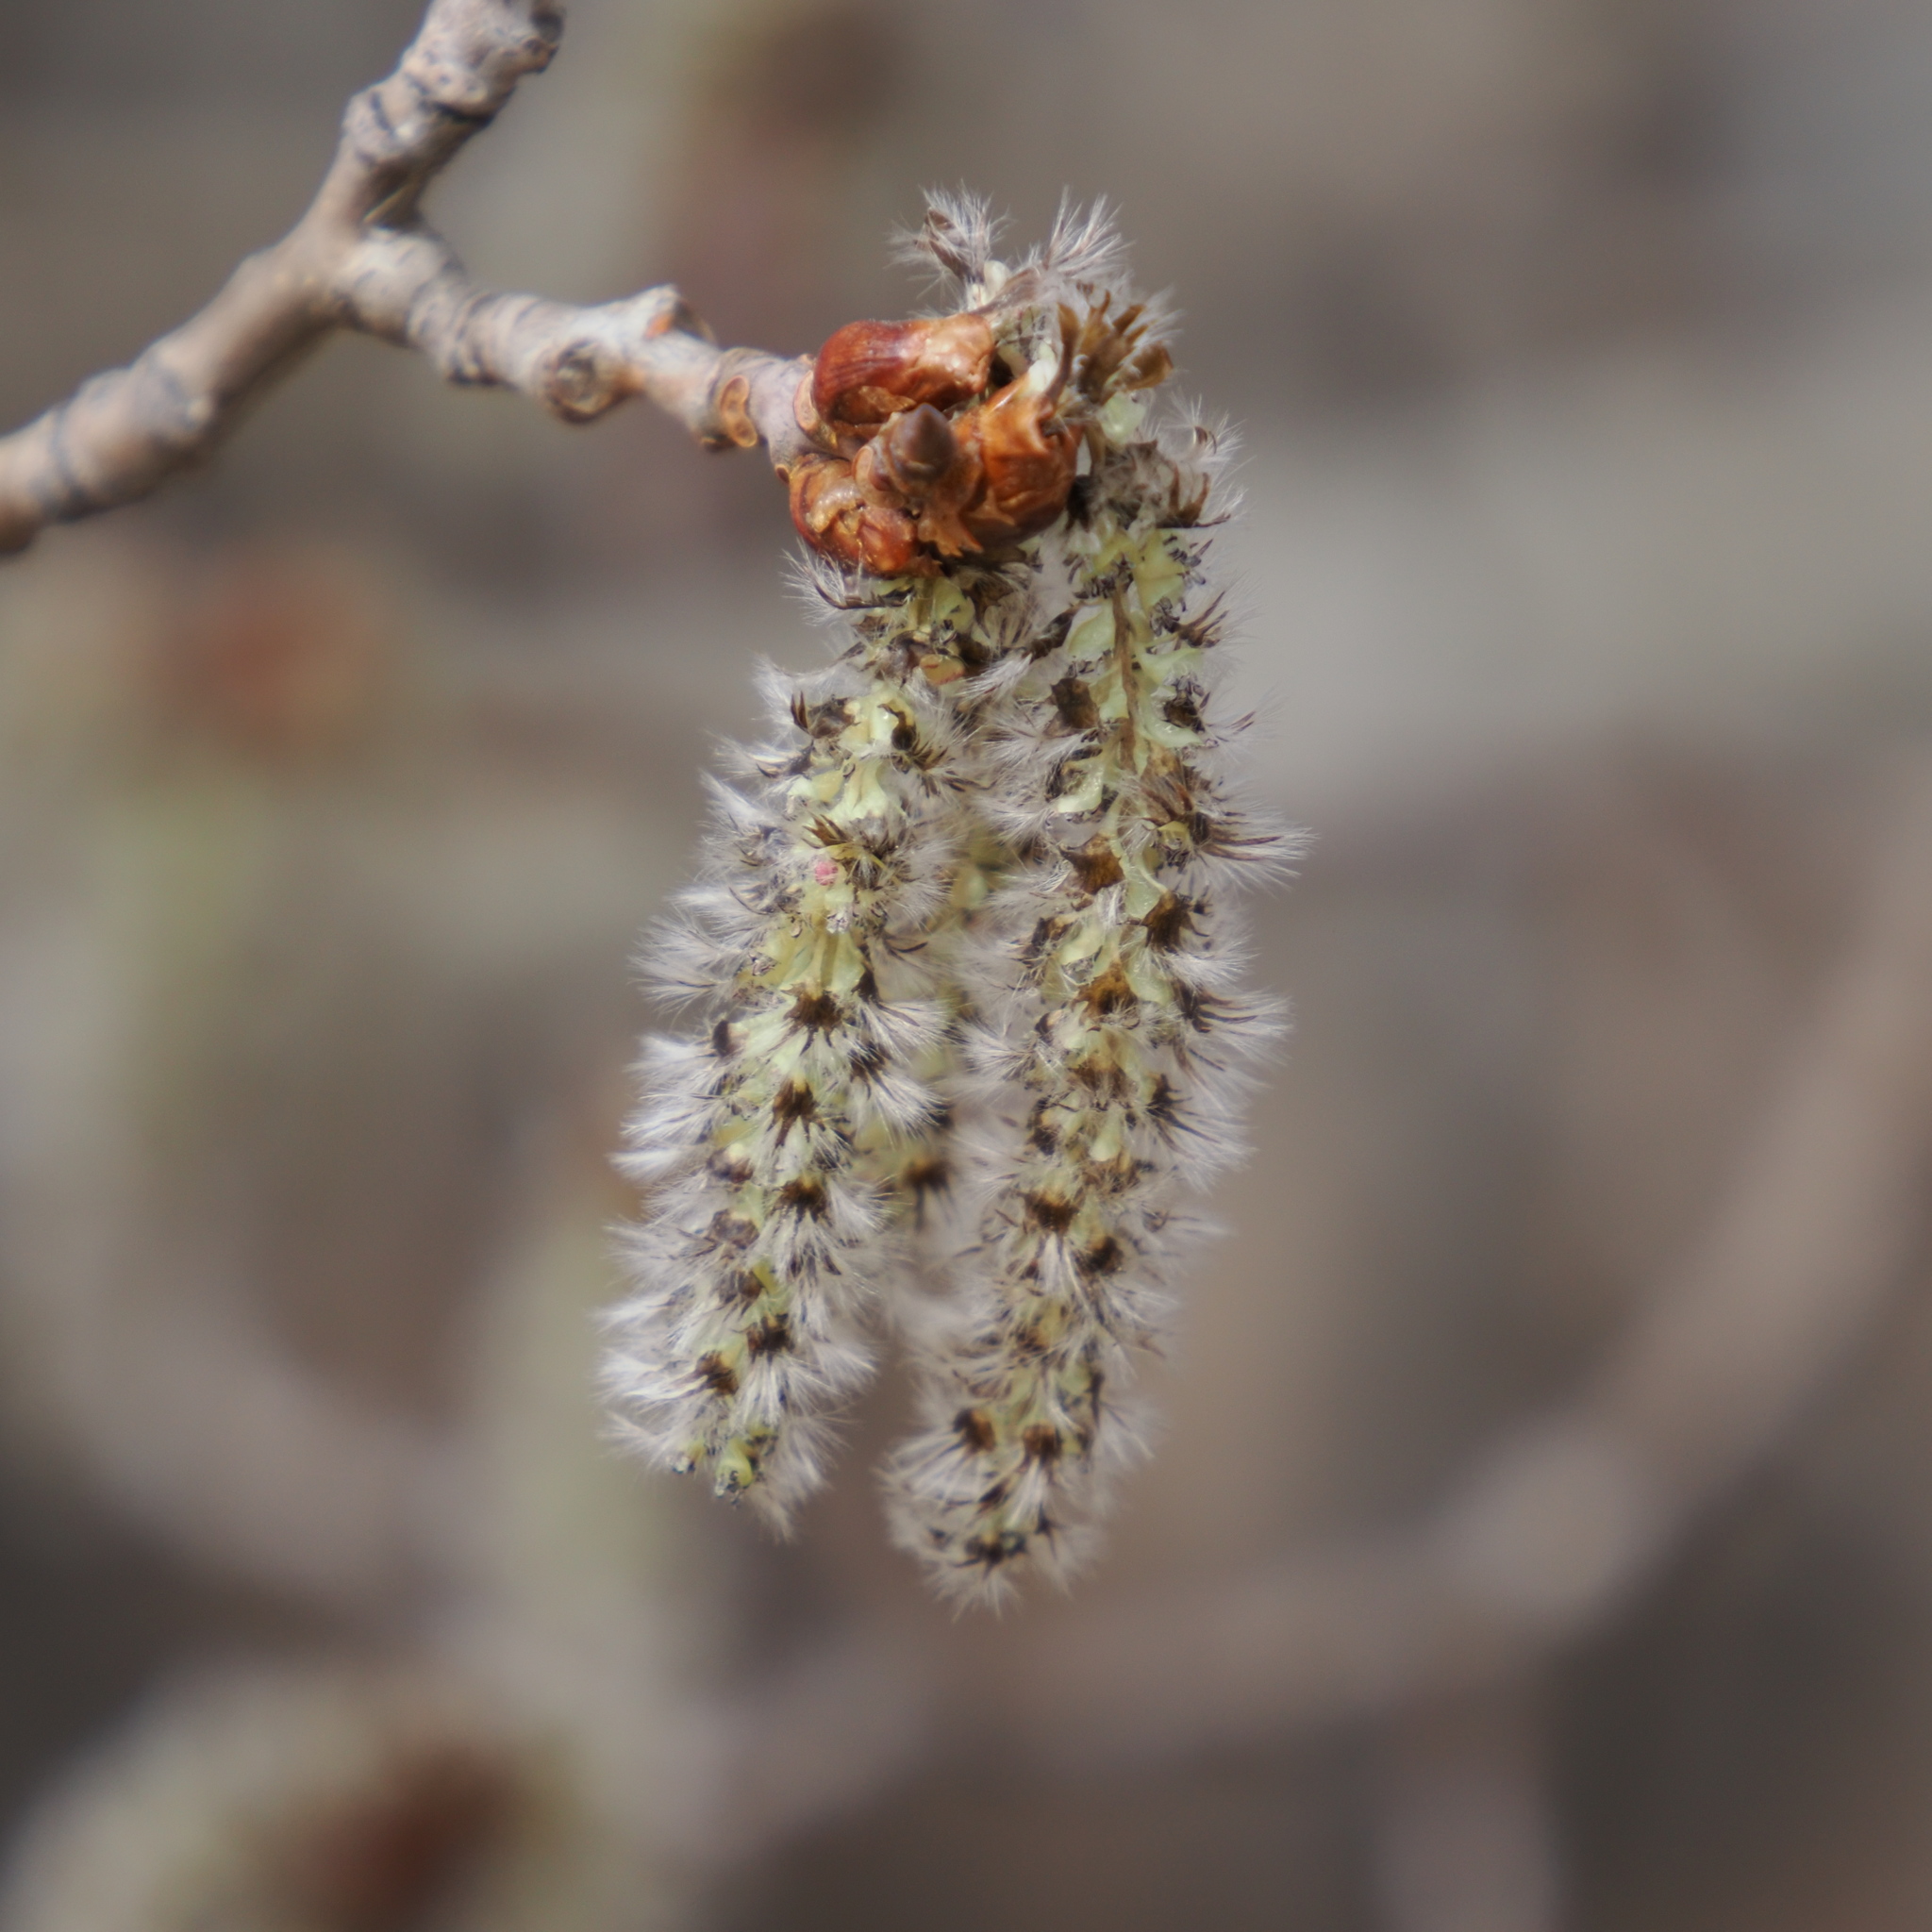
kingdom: Plantae
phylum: Tracheophyta
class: Magnoliopsida
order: Malpighiales
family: Salicaceae
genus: Populus
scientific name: Populus tremuloides
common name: Quaking aspen
